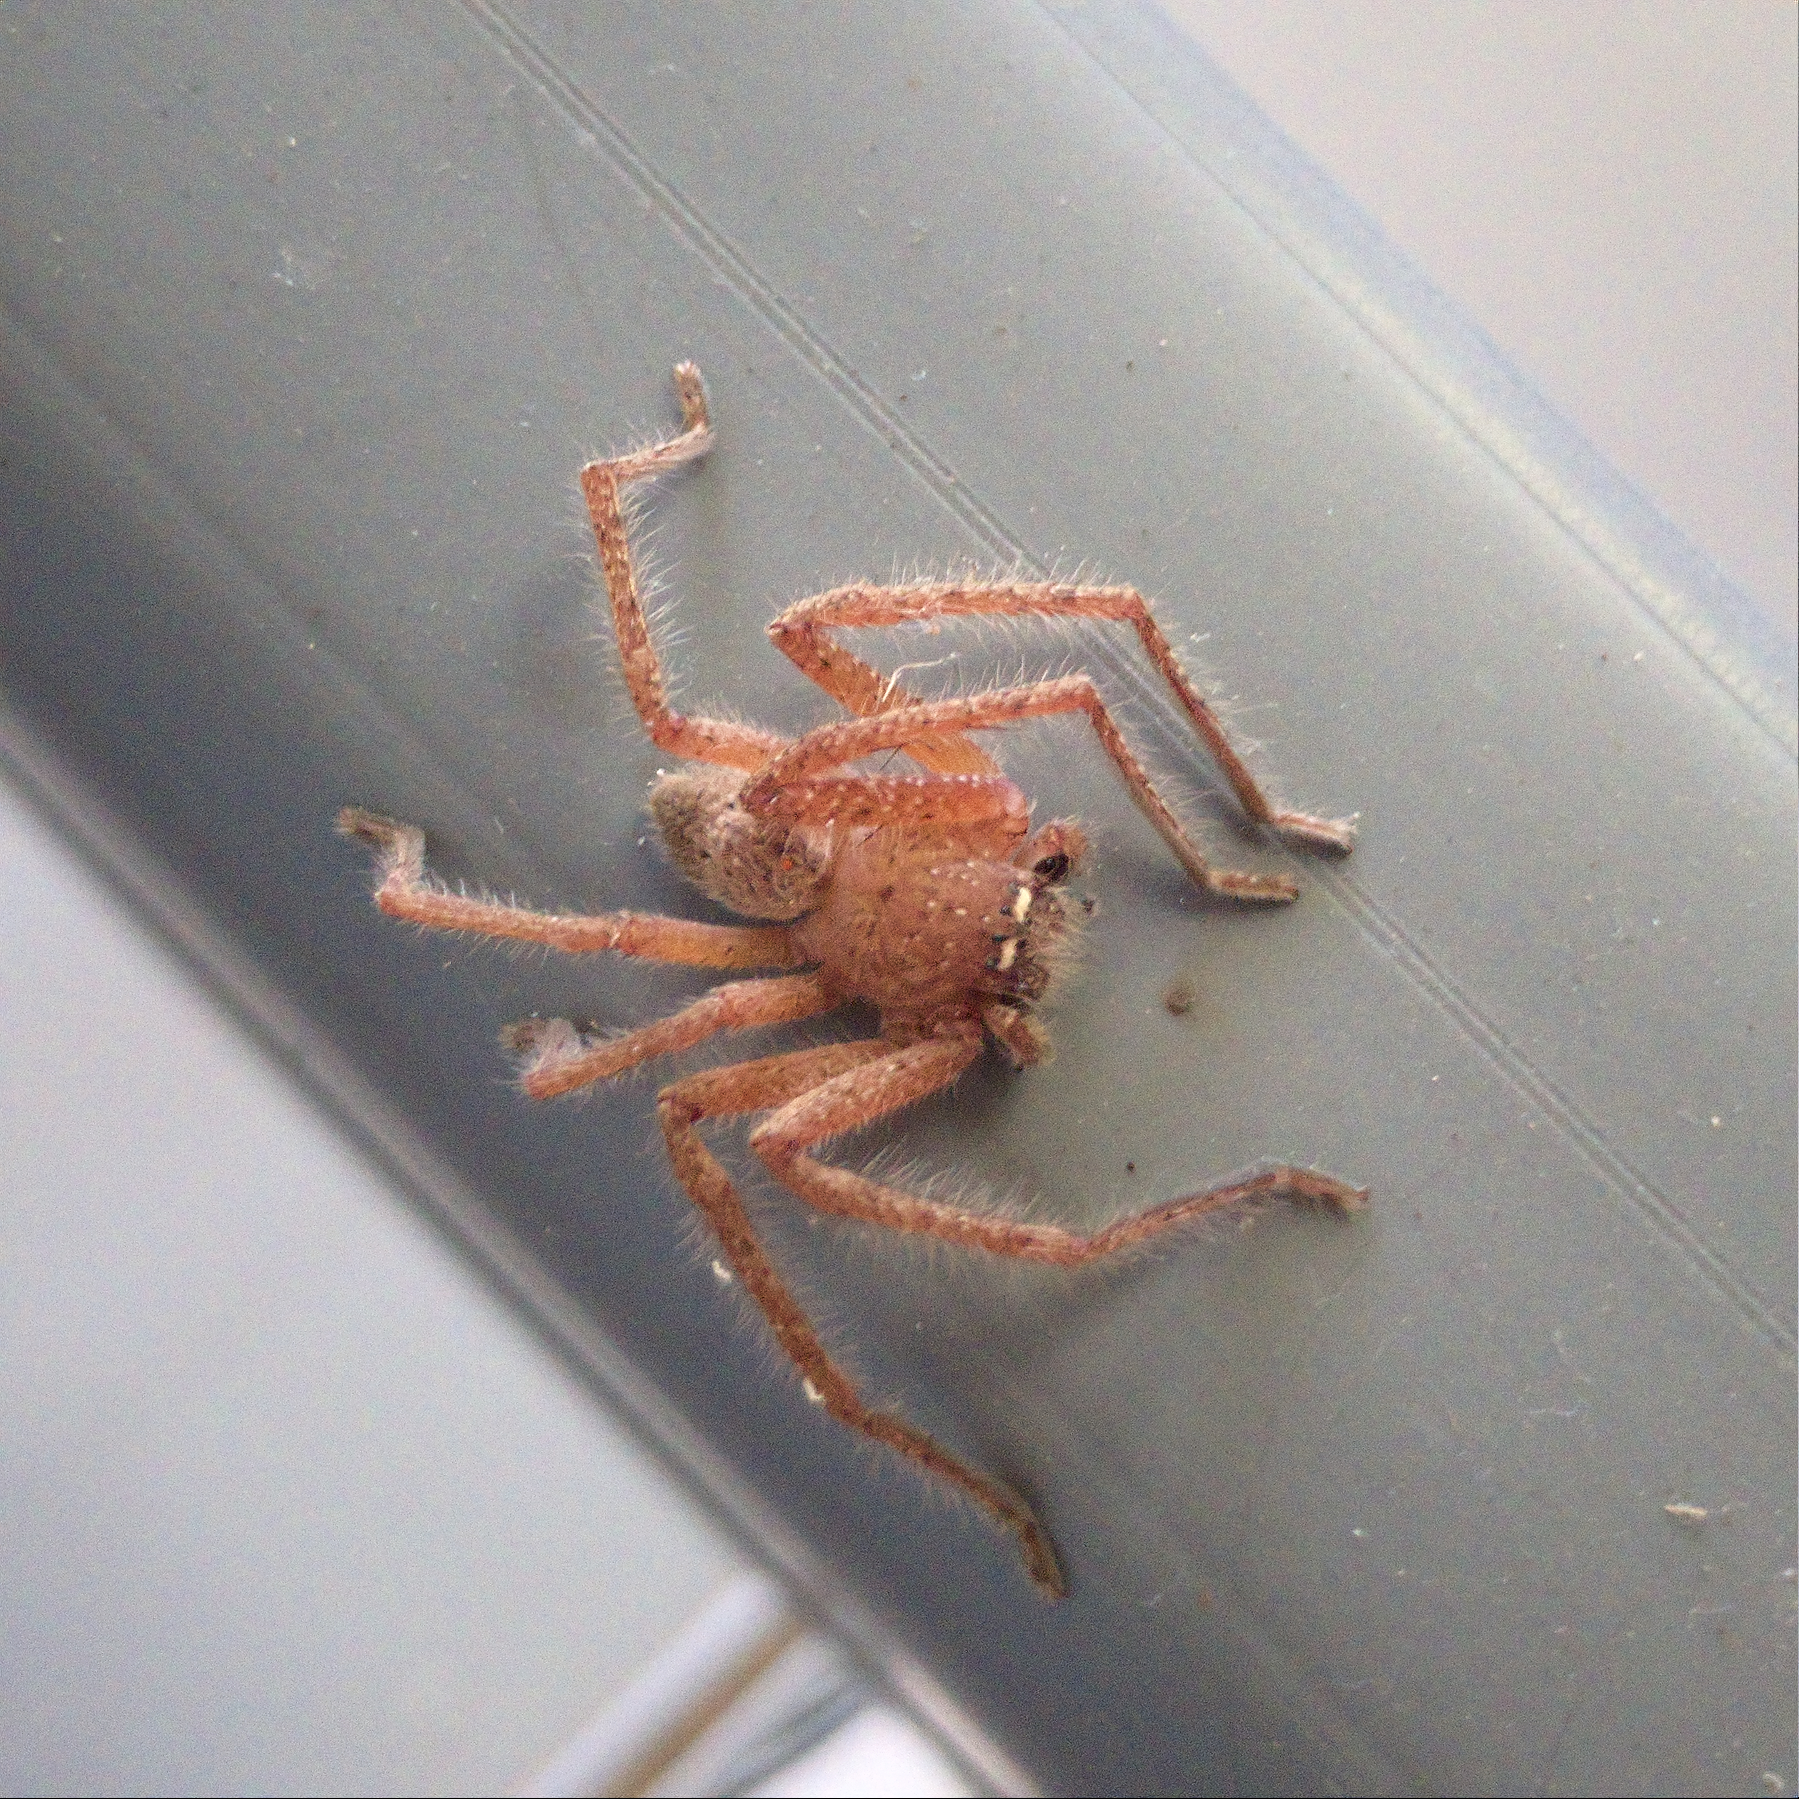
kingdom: Animalia
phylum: Arthropoda
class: Arachnida
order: Araneae
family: Sparassidae
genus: Neosparassus
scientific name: Neosparassus diana
